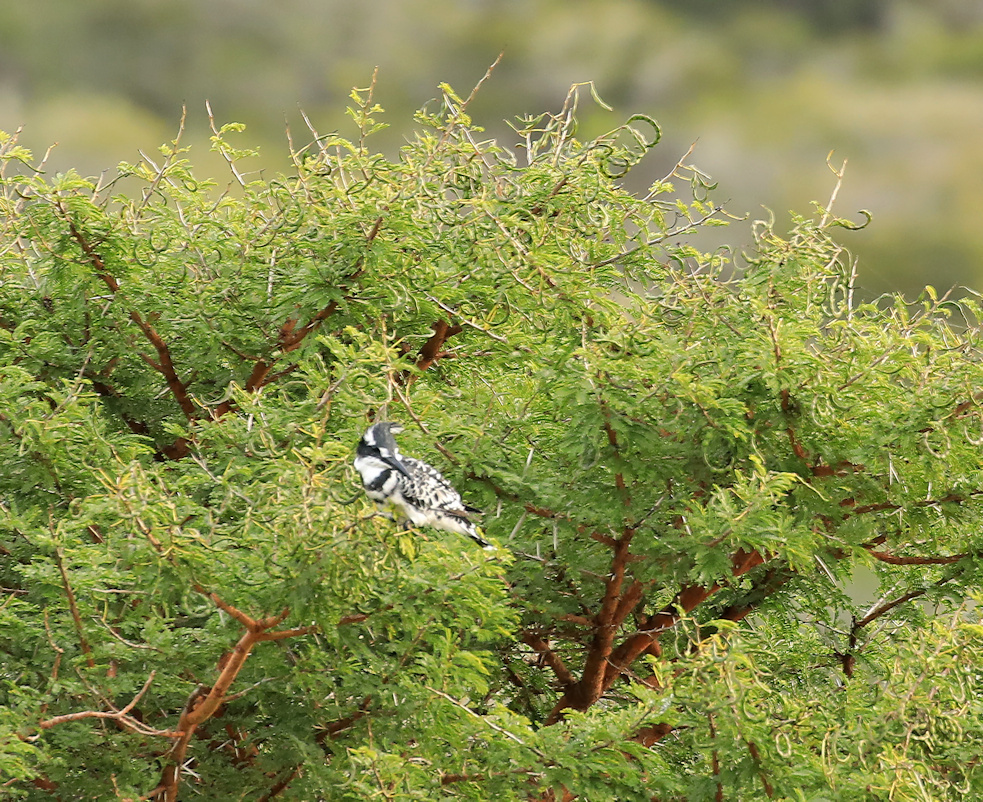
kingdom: Animalia
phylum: Chordata
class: Aves
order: Coraciiformes
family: Alcedinidae
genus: Ceryle
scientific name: Ceryle rudis
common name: Pied kingfisher
